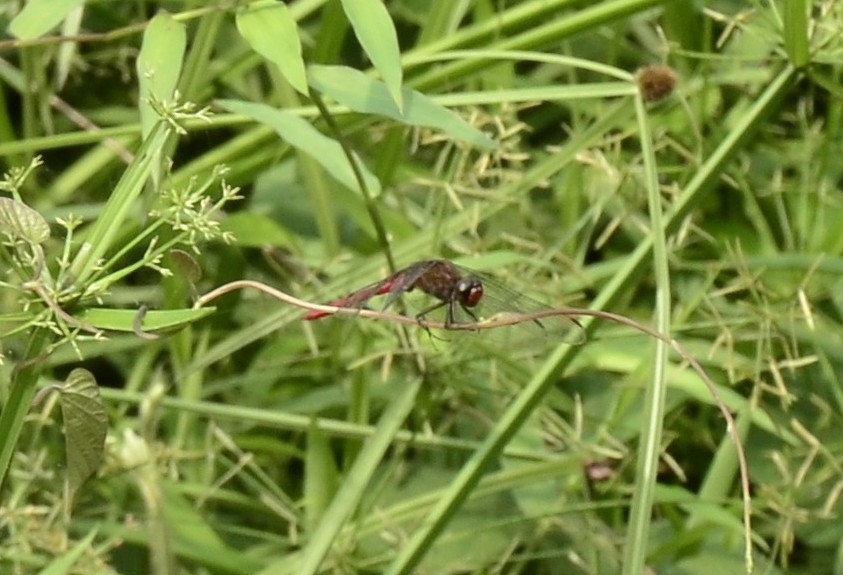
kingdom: Animalia
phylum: Arthropoda
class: Insecta
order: Odonata
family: Libellulidae
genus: Orthetrum
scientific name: Orthetrum chrysis
